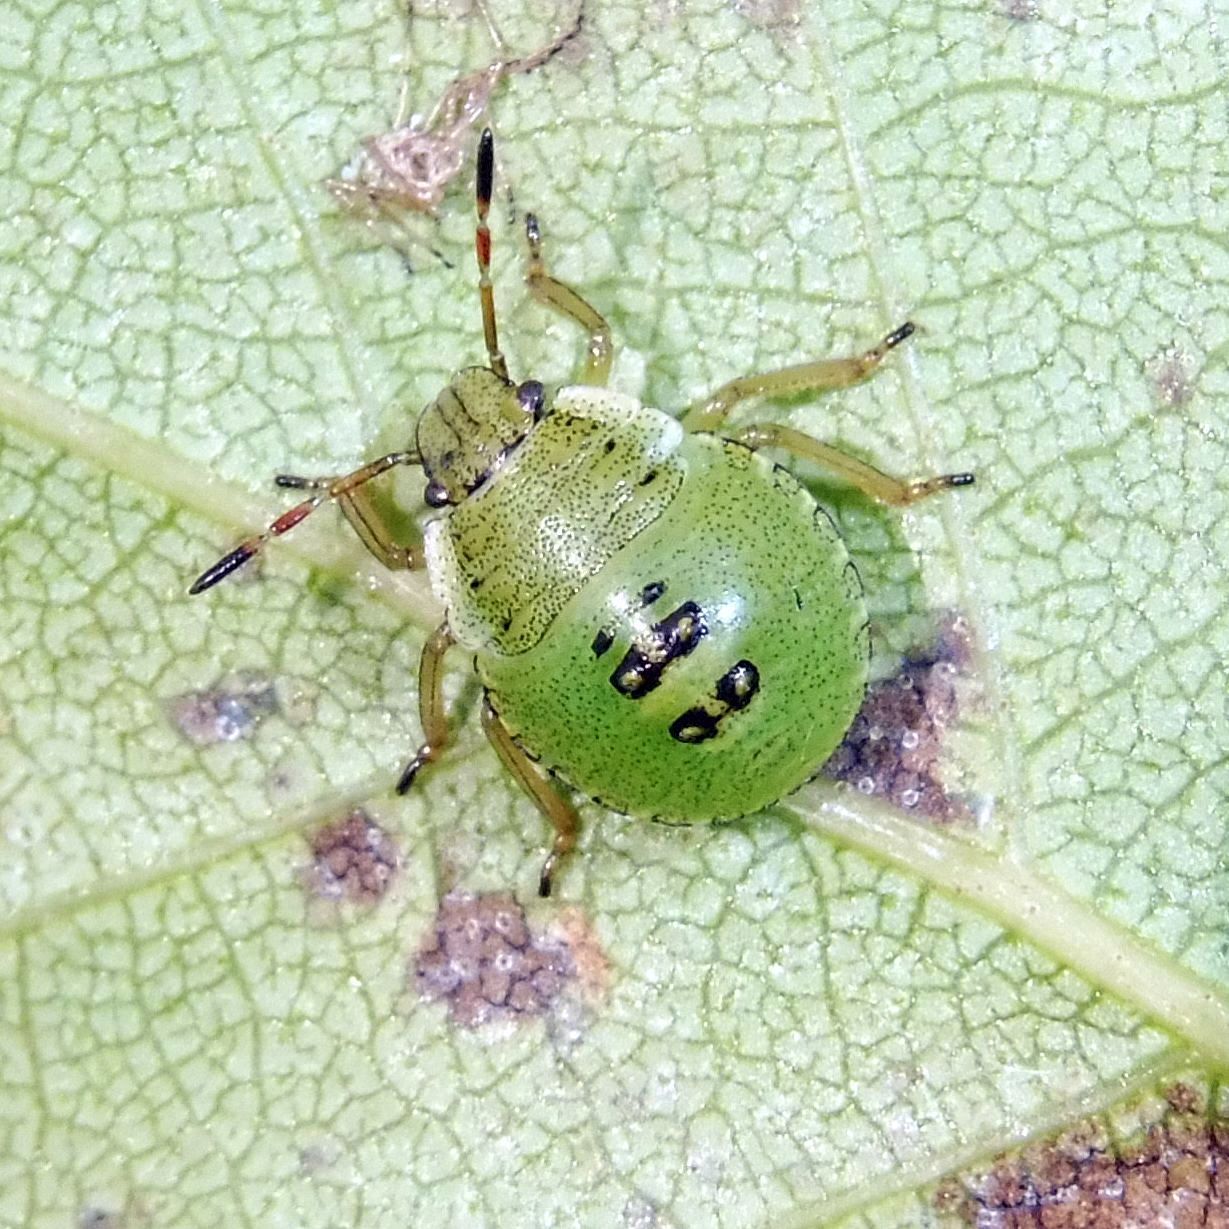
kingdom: Animalia
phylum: Arthropoda
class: Insecta
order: Hemiptera
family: Pentatomidae
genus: Palomena
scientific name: Palomena prasina
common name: Green shieldbug
